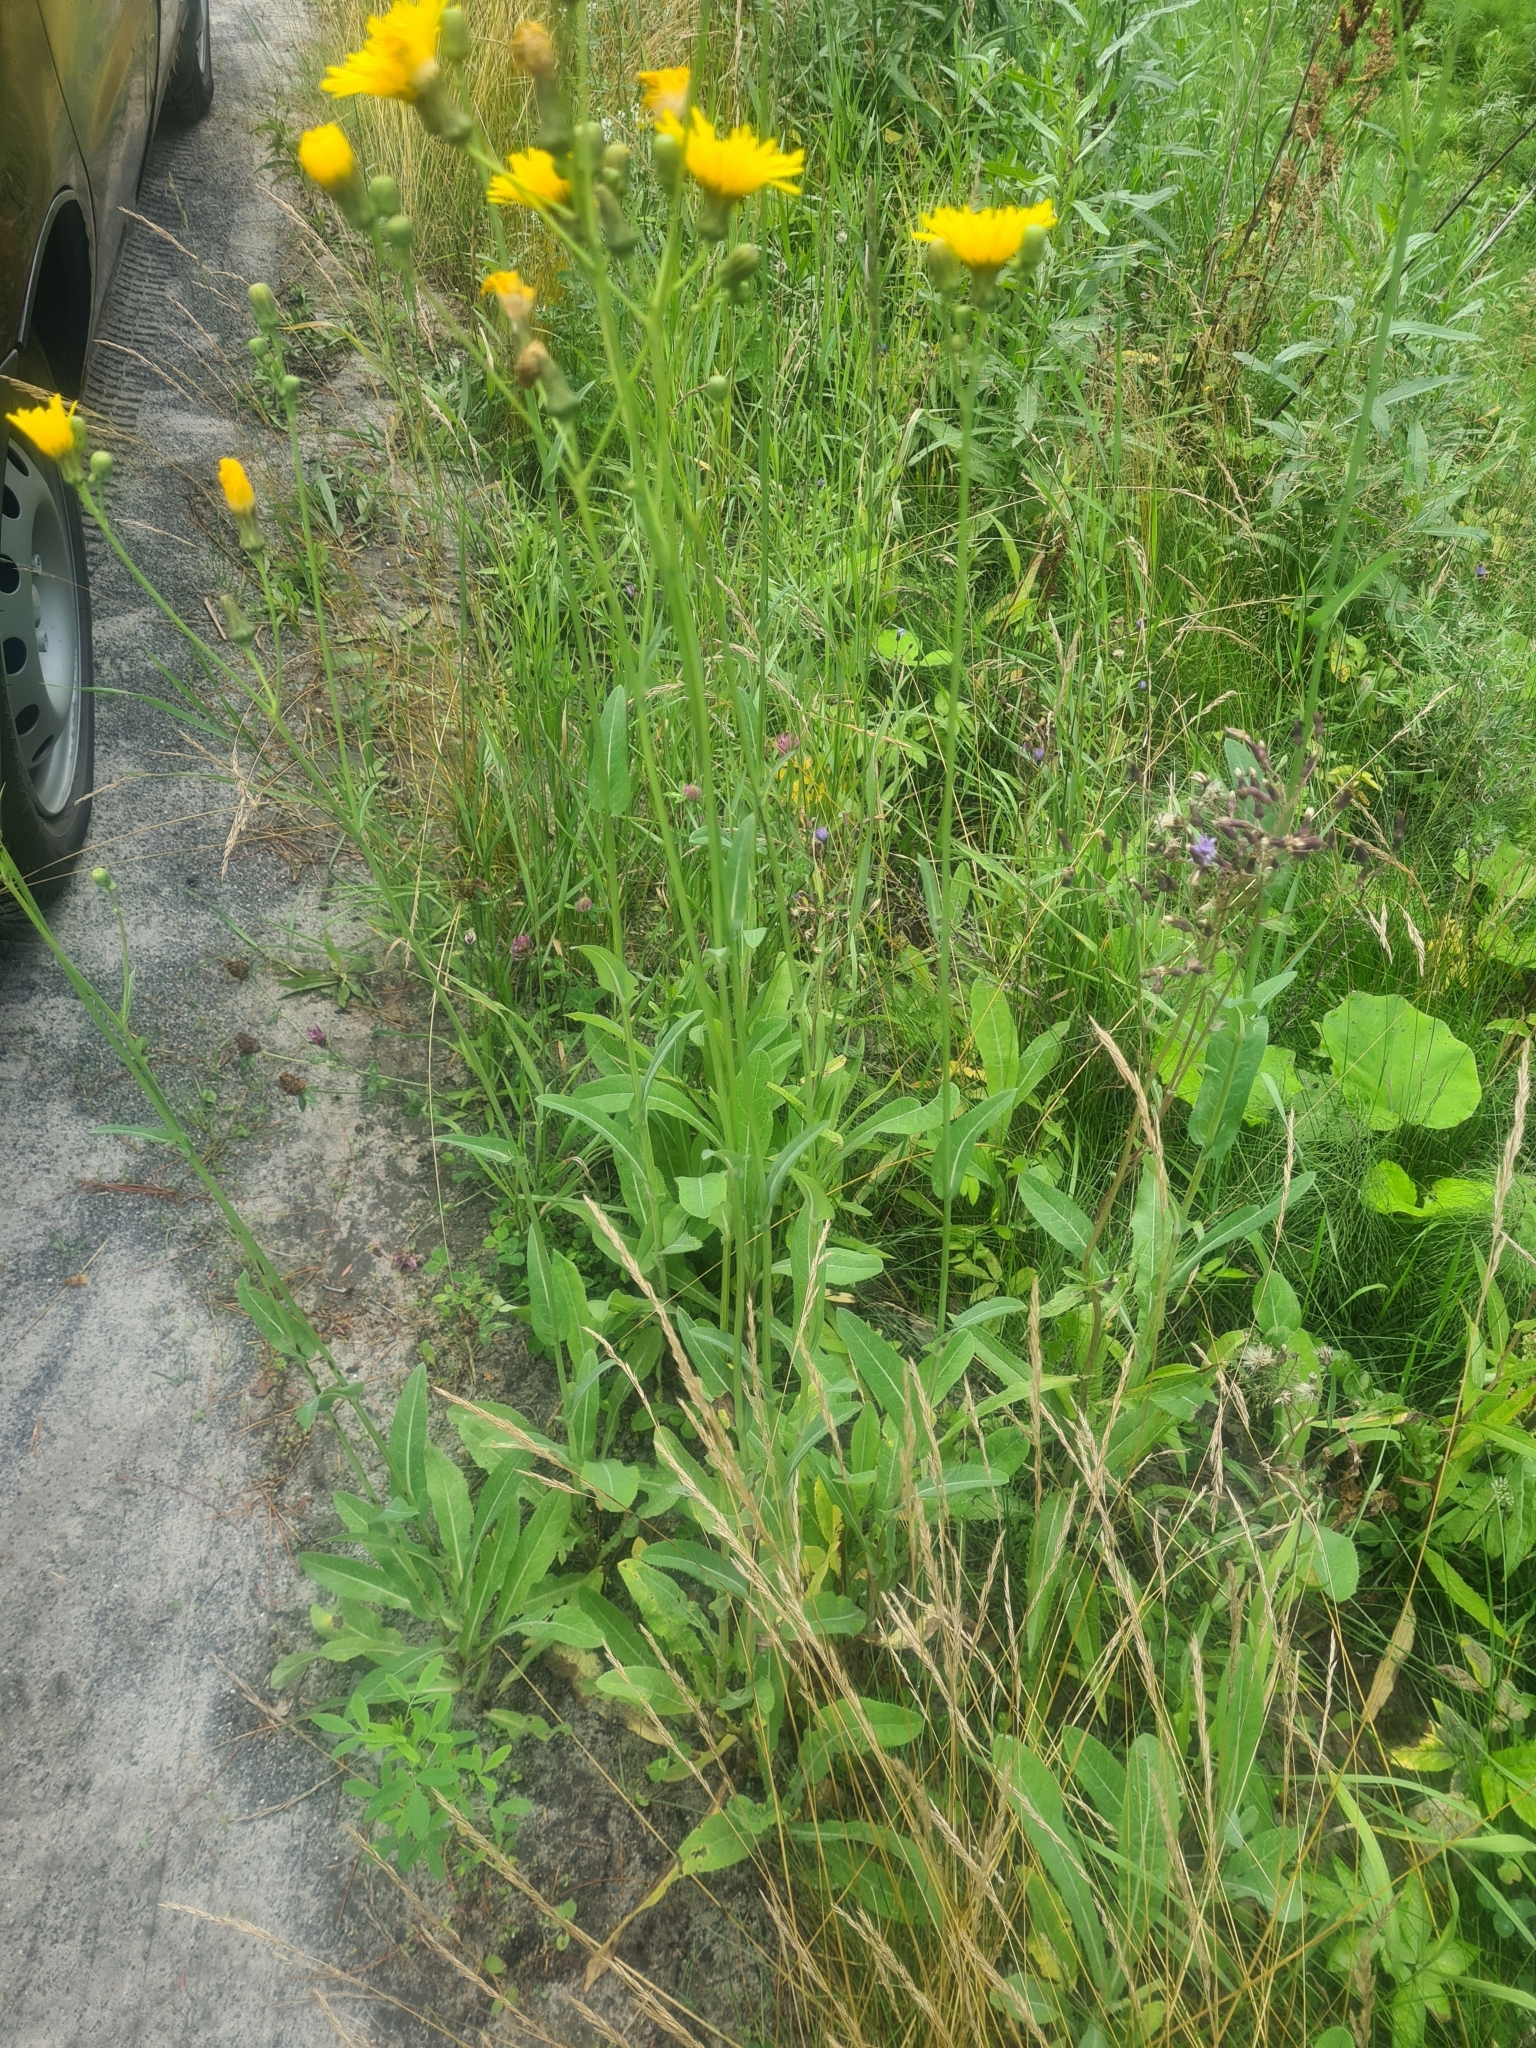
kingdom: Plantae
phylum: Tracheophyta
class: Magnoliopsida
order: Asterales
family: Asteraceae
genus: Sonchus
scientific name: Sonchus arvensis
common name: Perennial sow-thistle
